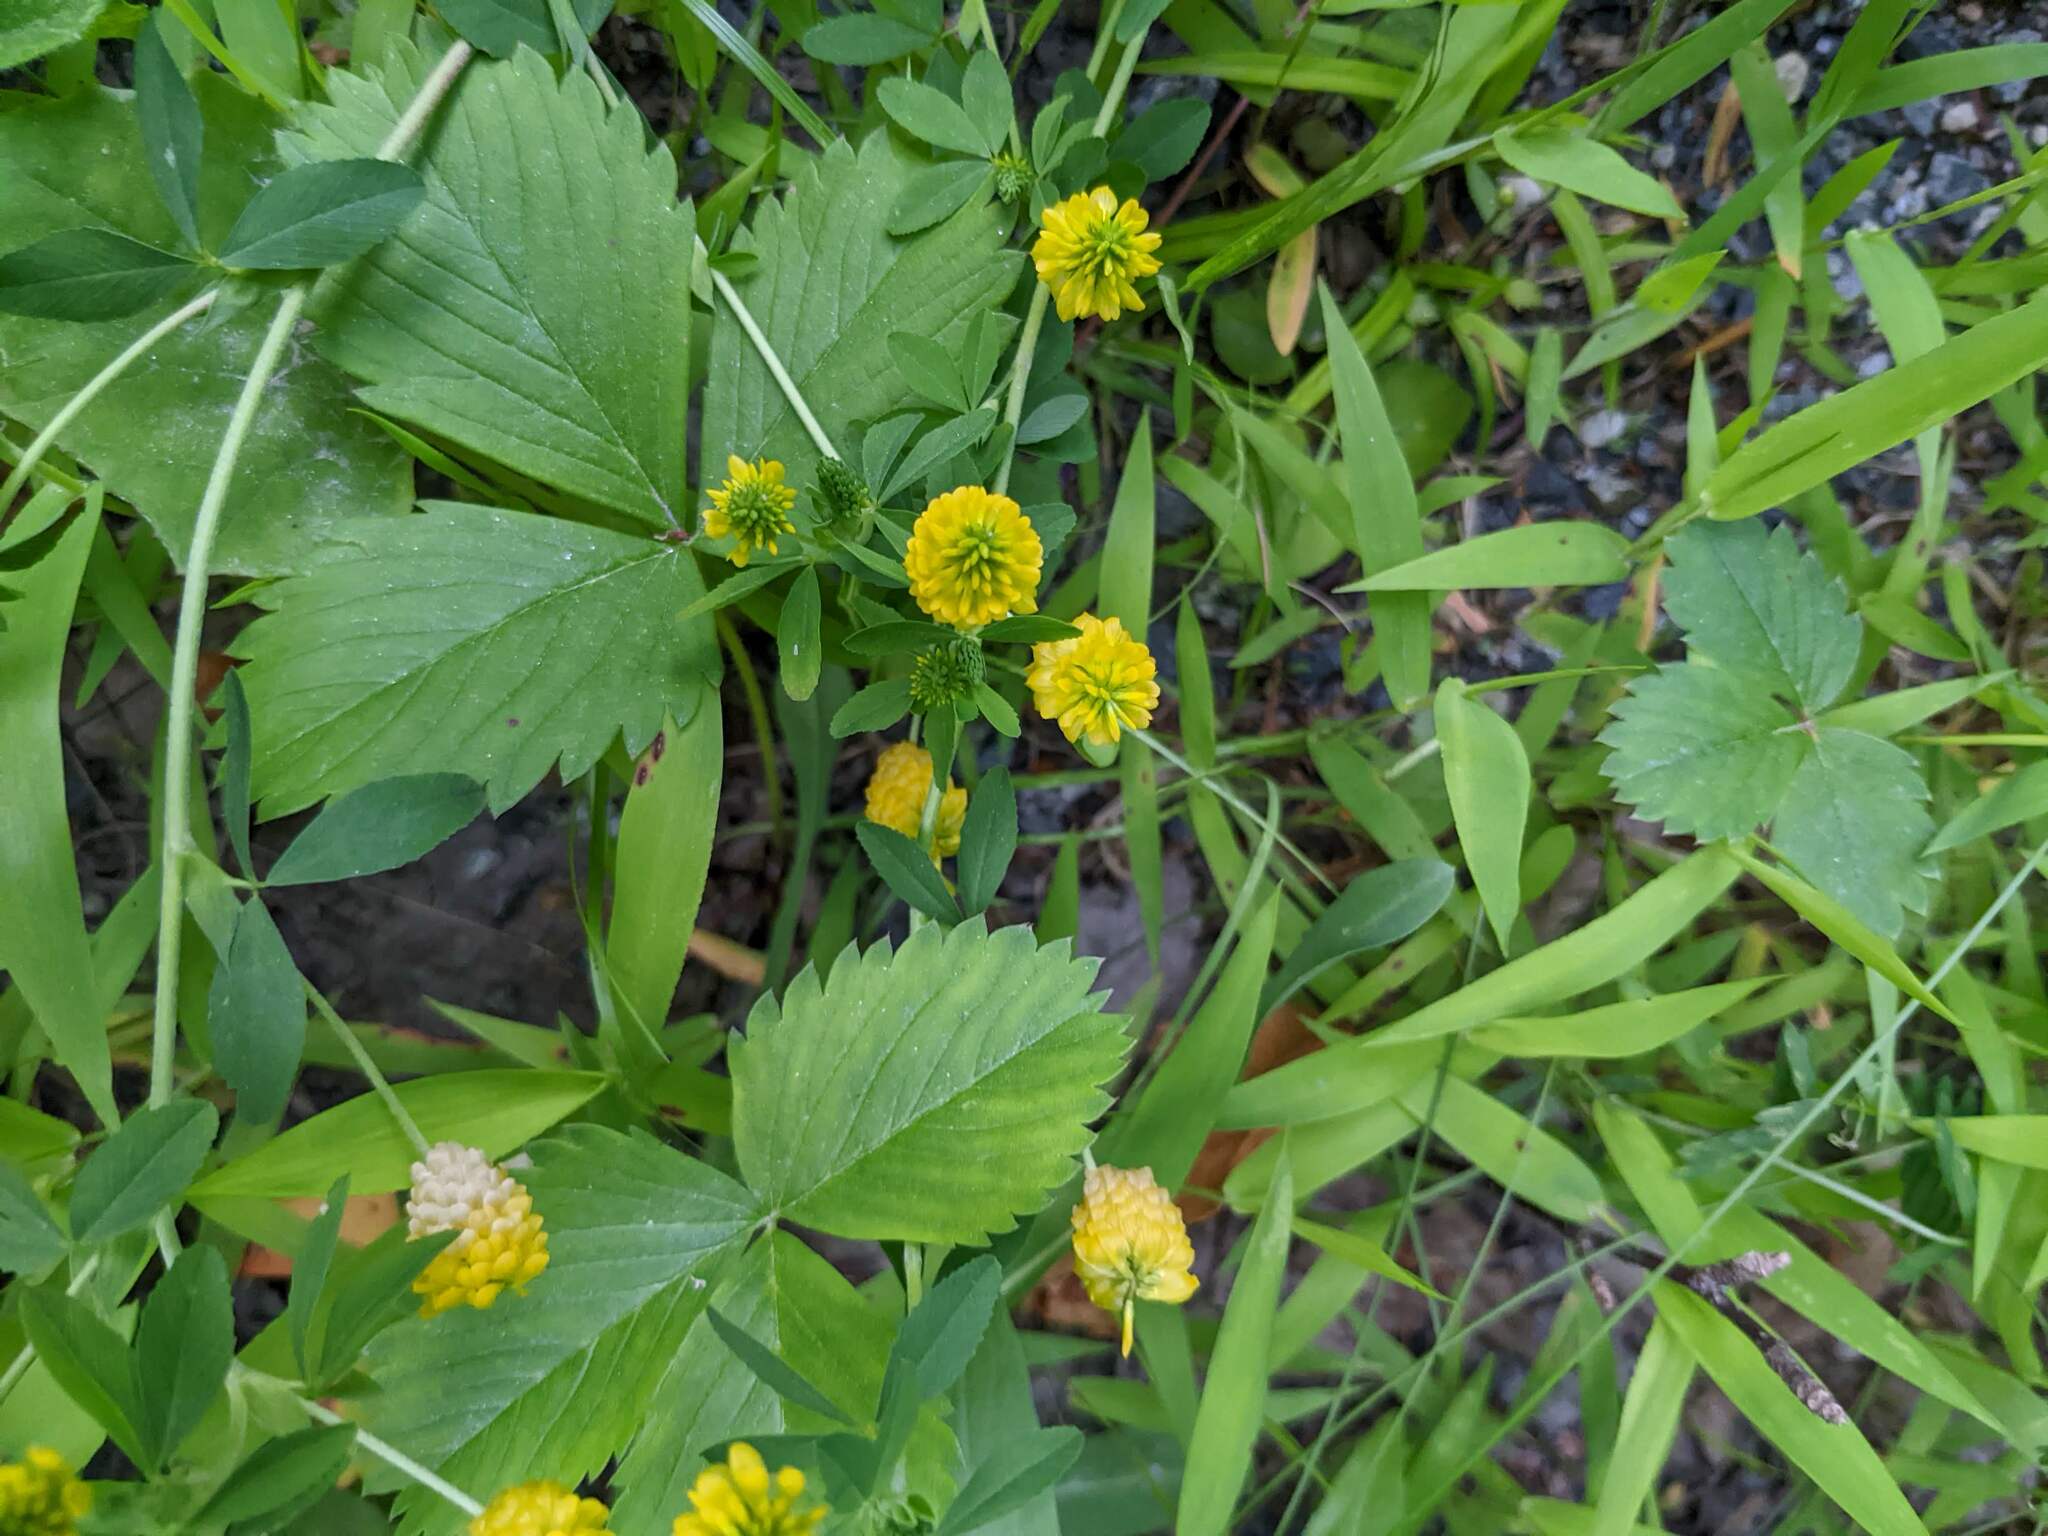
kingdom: Plantae
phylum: Tracheophyta
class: Magnoliopsida
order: Fabales
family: Fabaceae
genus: Trifolium
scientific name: Trifolium aureum
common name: Golden clover
